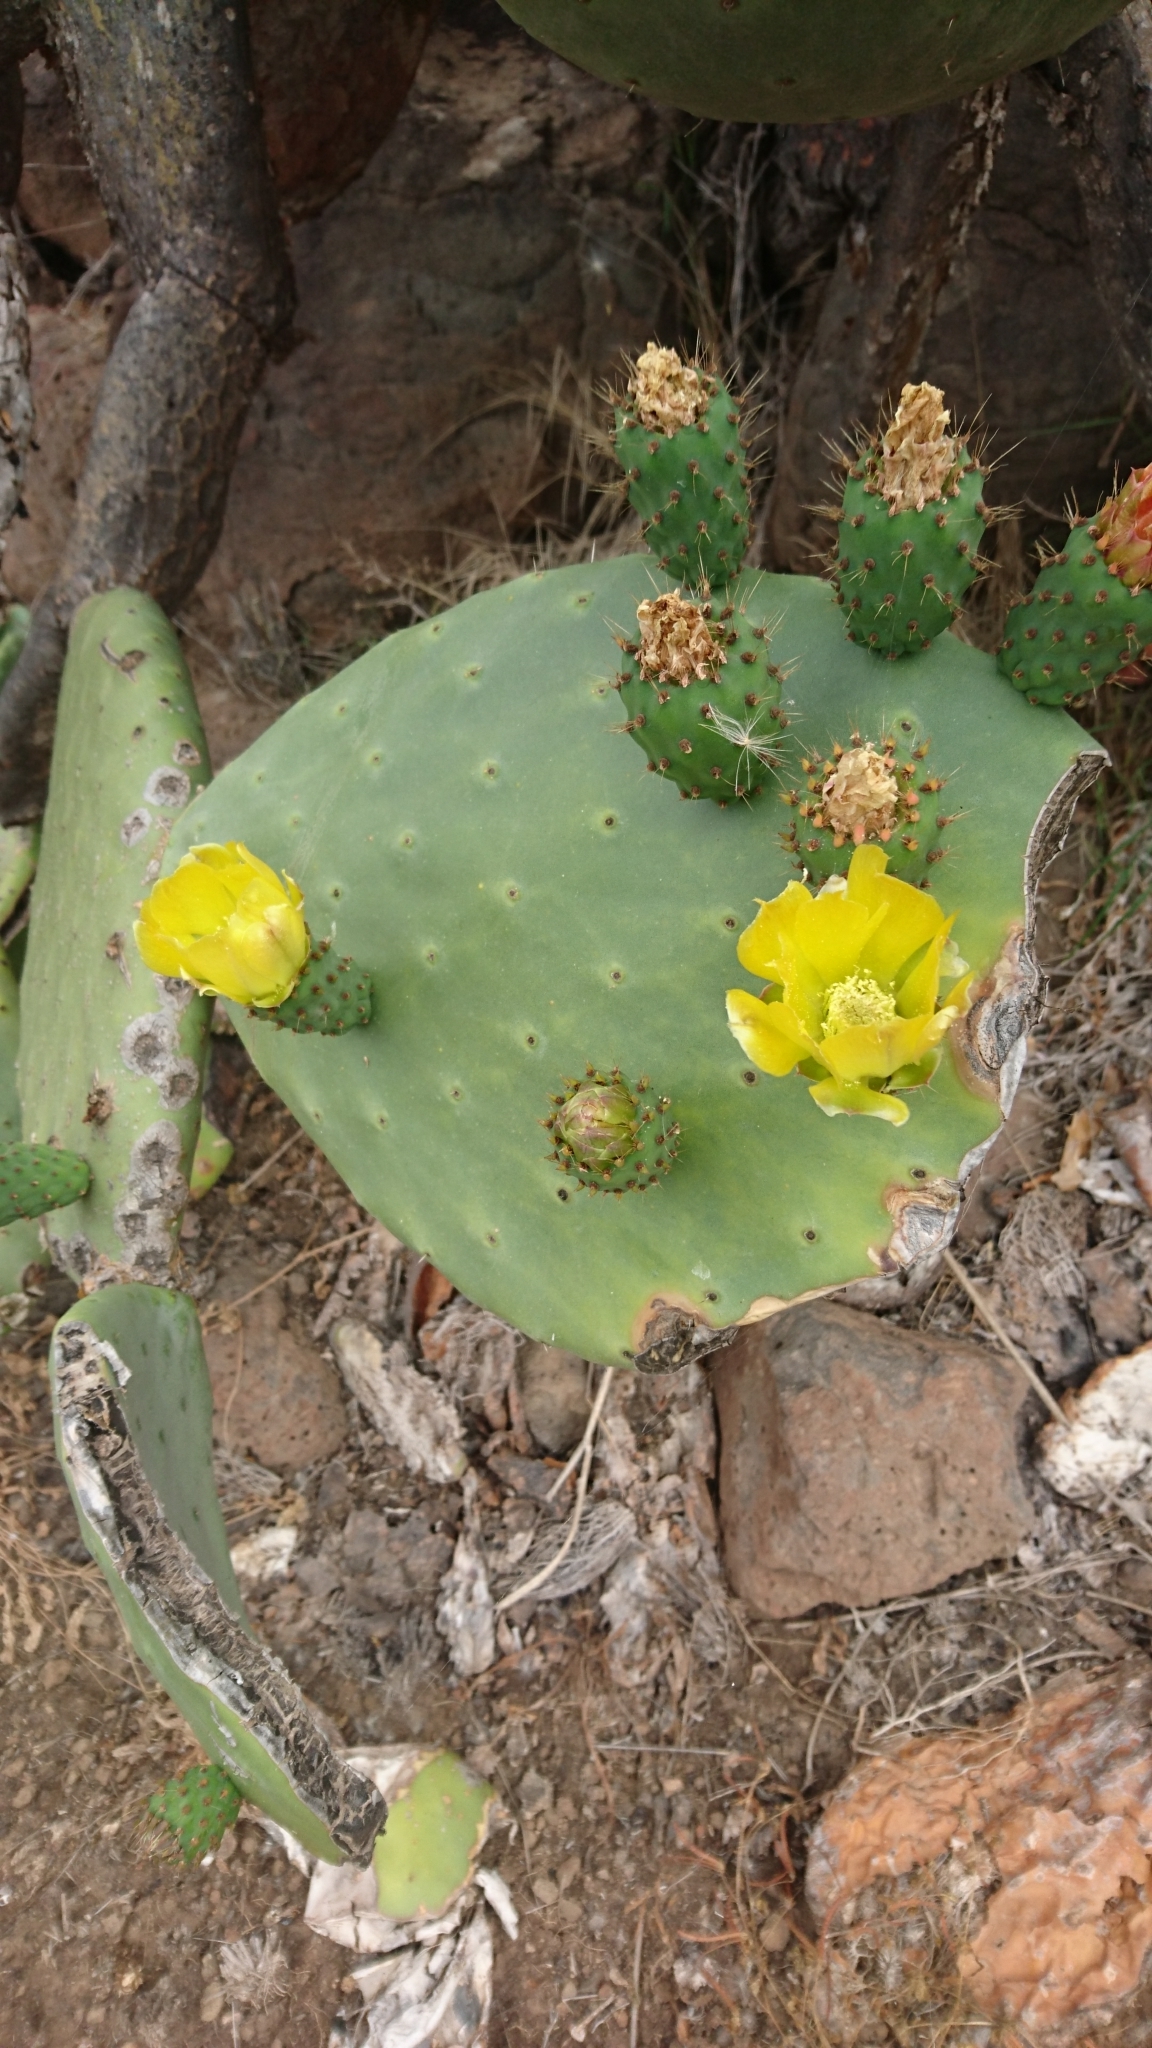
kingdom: Plantae
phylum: Tracheophyta
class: Magnoliopsida
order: Caryophyllales
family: Cactaceae
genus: Opuntia
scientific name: Opuntia ficus-indica
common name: Barbary fig
